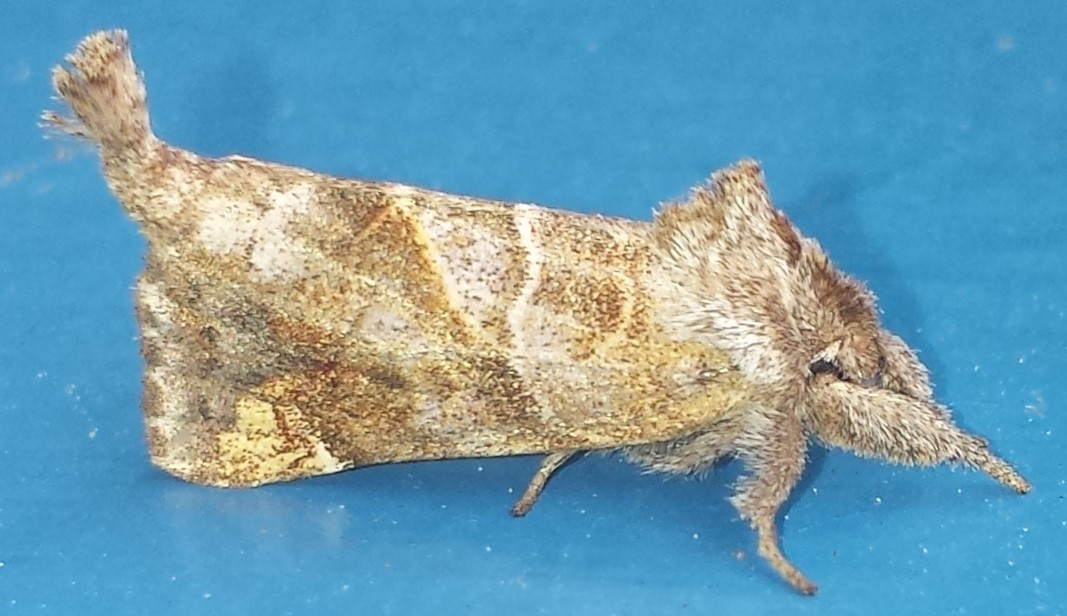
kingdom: Animalia
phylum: Arthropoda
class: Insecta
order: Lepidoptera
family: Notodontidae
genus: Clostera
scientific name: Clostera strigosa
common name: Striped chocolate-tip moth
